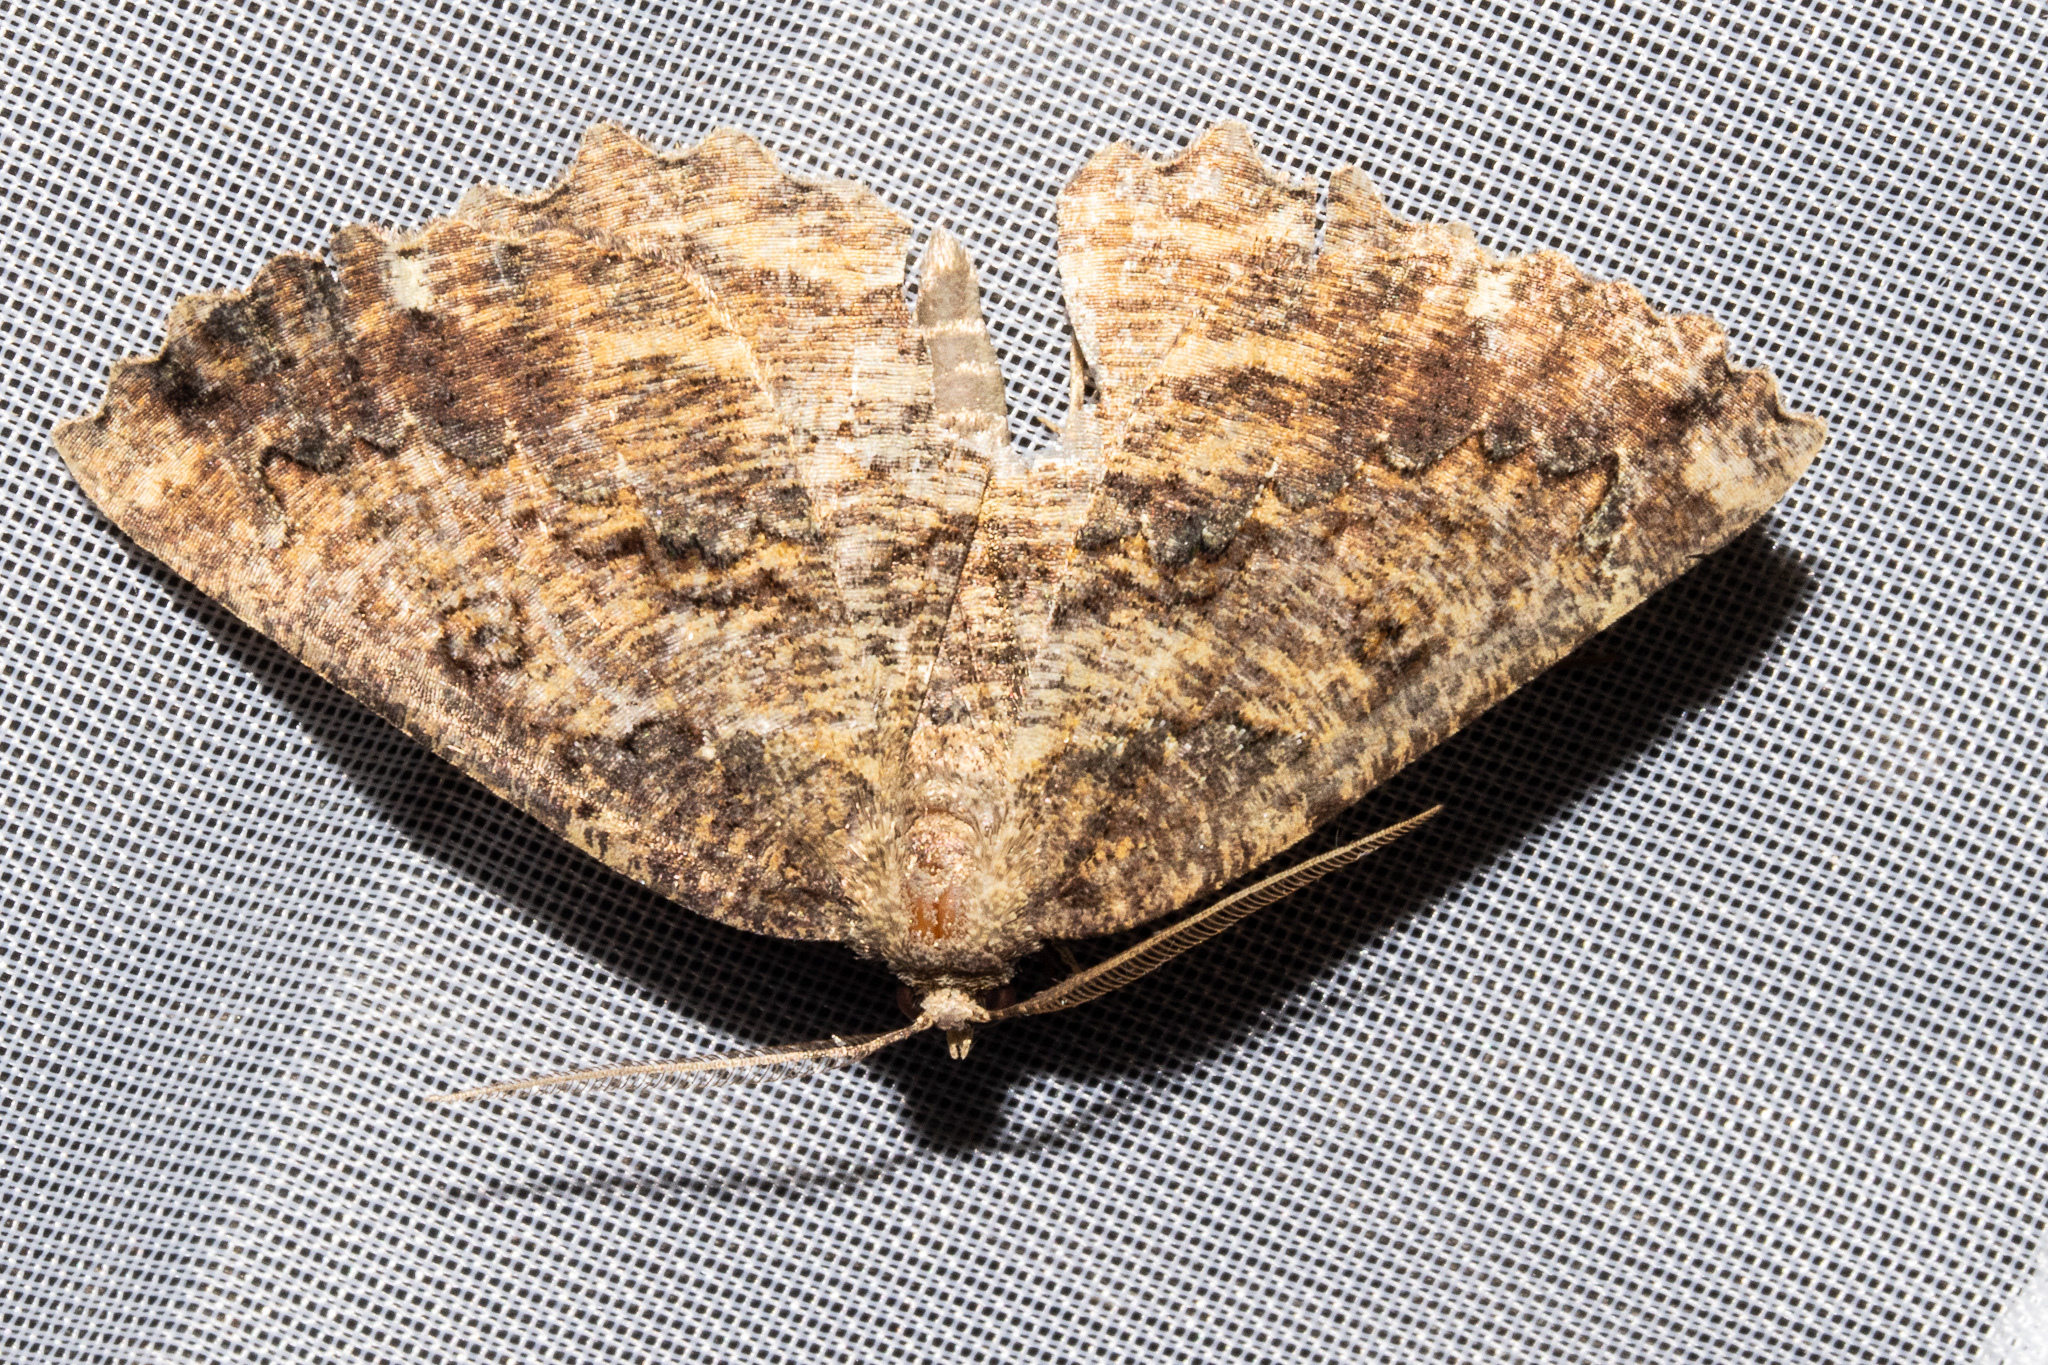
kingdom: Animalia
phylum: Arthropoda
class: Insecta
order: Lepidoptera
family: Geometridae
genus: Gellonia
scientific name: Gellonia pannularia
